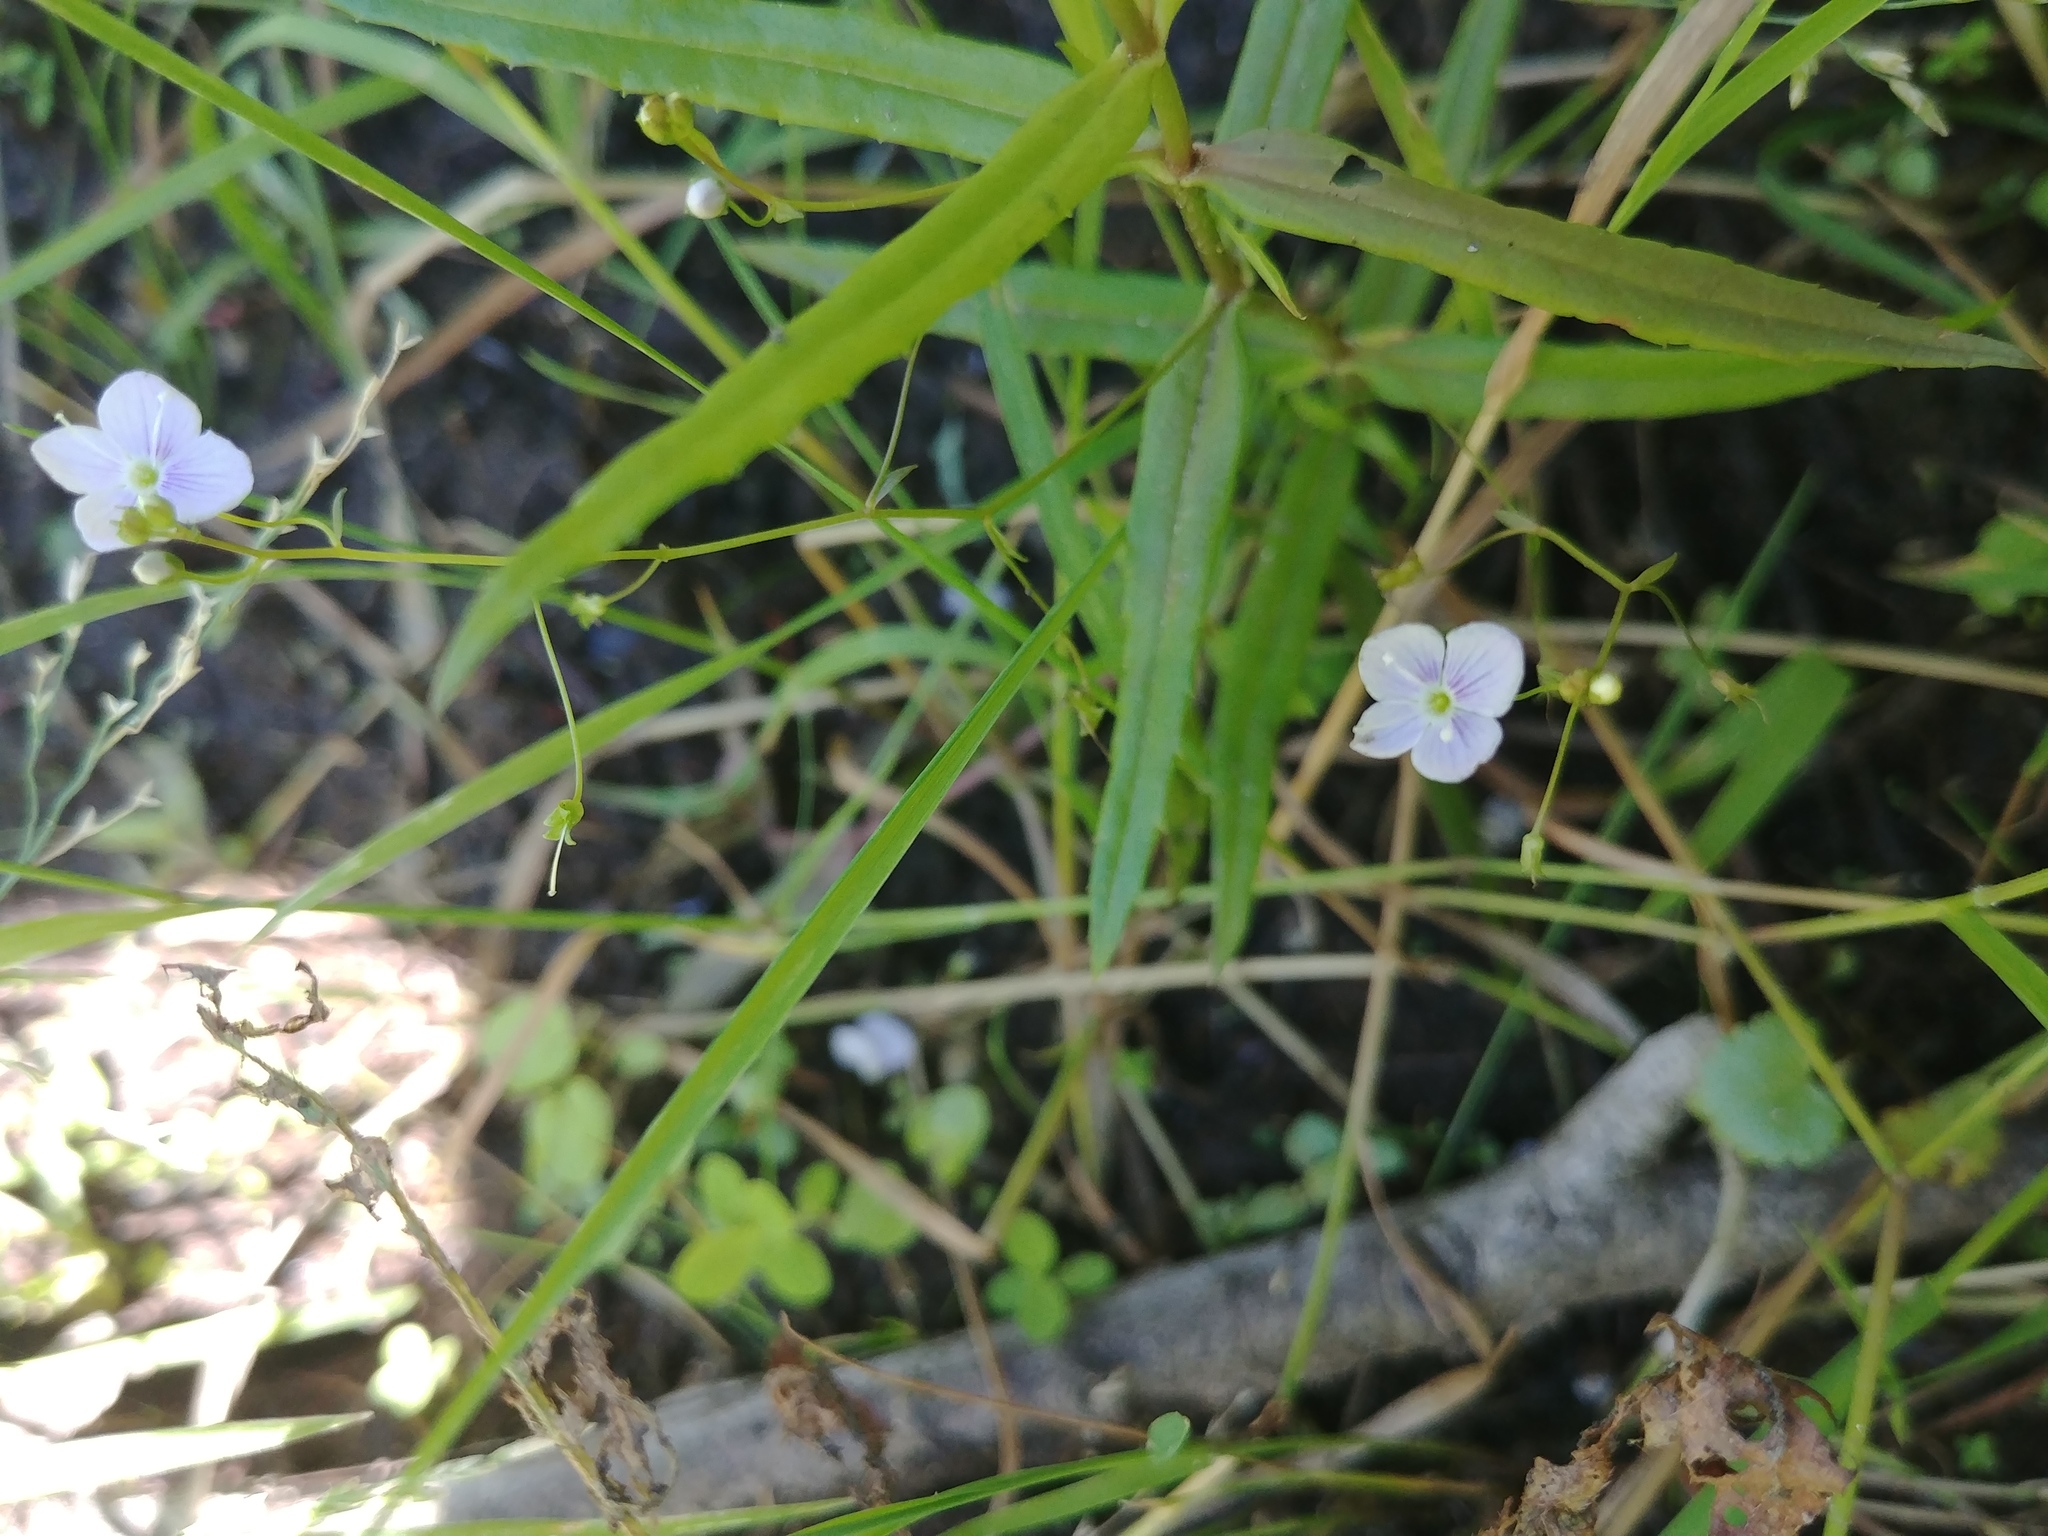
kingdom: Plantae
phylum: Tracheophyta
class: Magnoliopsida
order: Lamiales
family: Plantaginaceae
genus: Veronica
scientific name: Veronica scutellata
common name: Marsh speedwell
